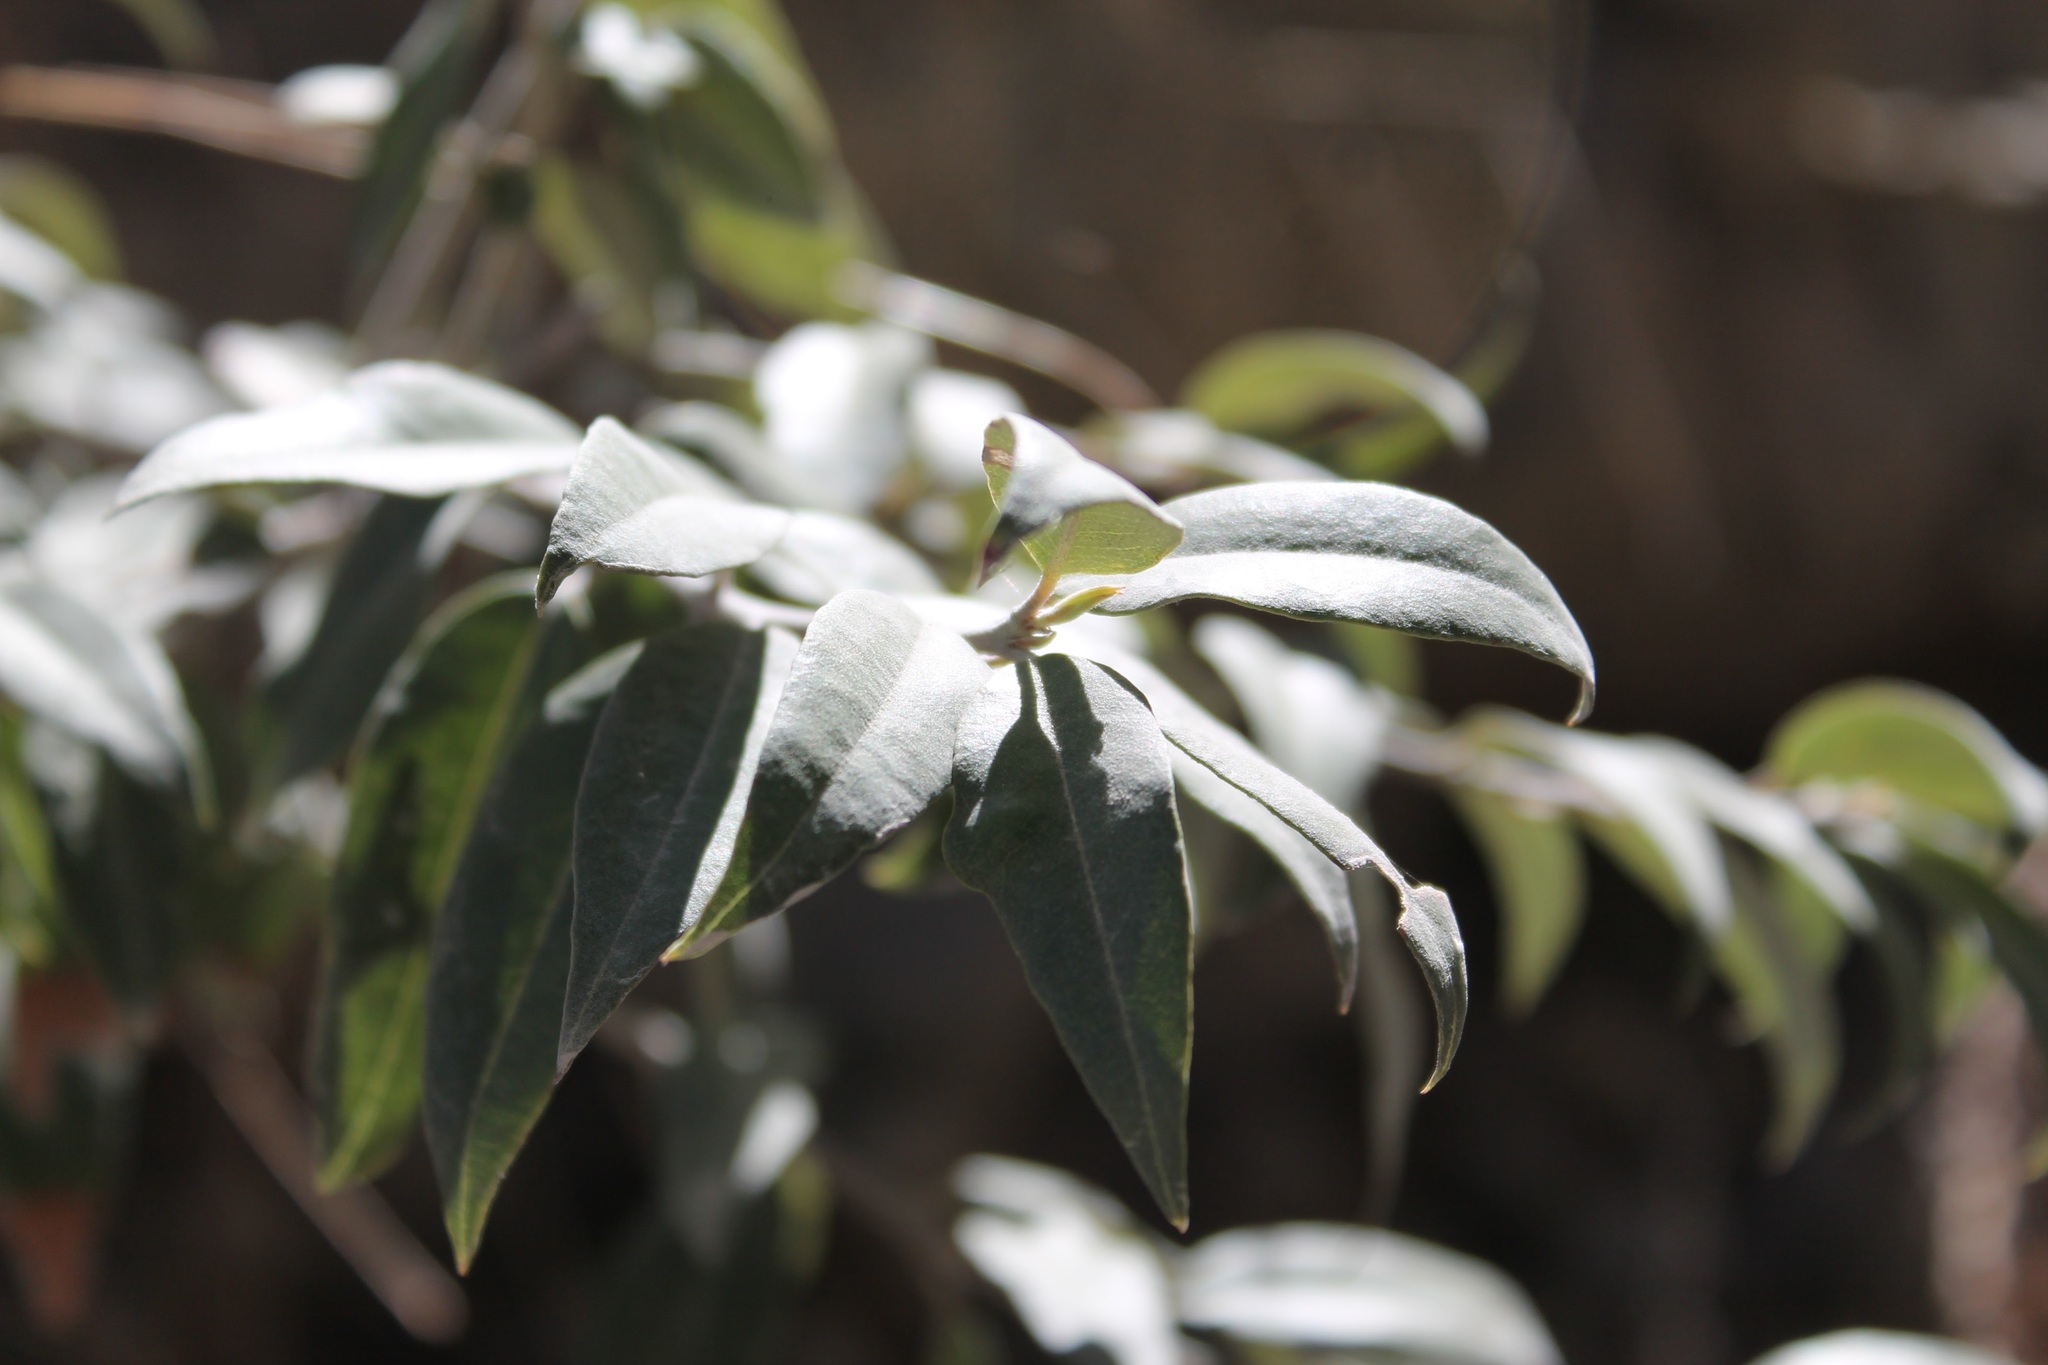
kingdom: Plantae
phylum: Tracheophyta
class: Magnoliopsida
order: Ericales
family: Ericaceae
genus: Agarista
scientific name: Agarista mexicana
